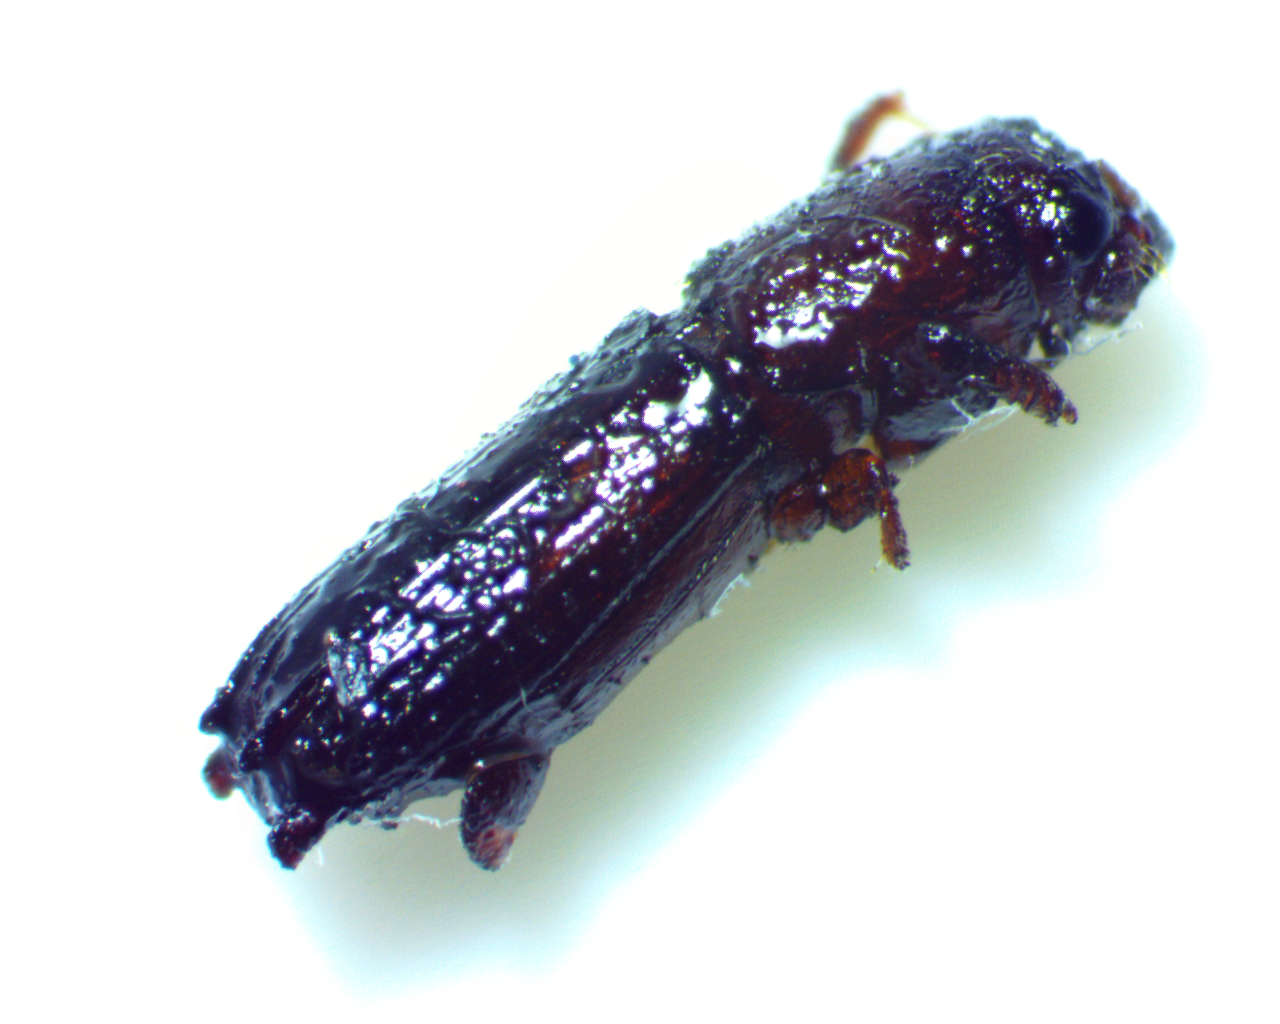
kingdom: Animalia
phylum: Arthropoda
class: Insecta
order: Coleoptera
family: Curculionidae
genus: Oxoplatypus
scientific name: Oxoplatypus quadridentatus
